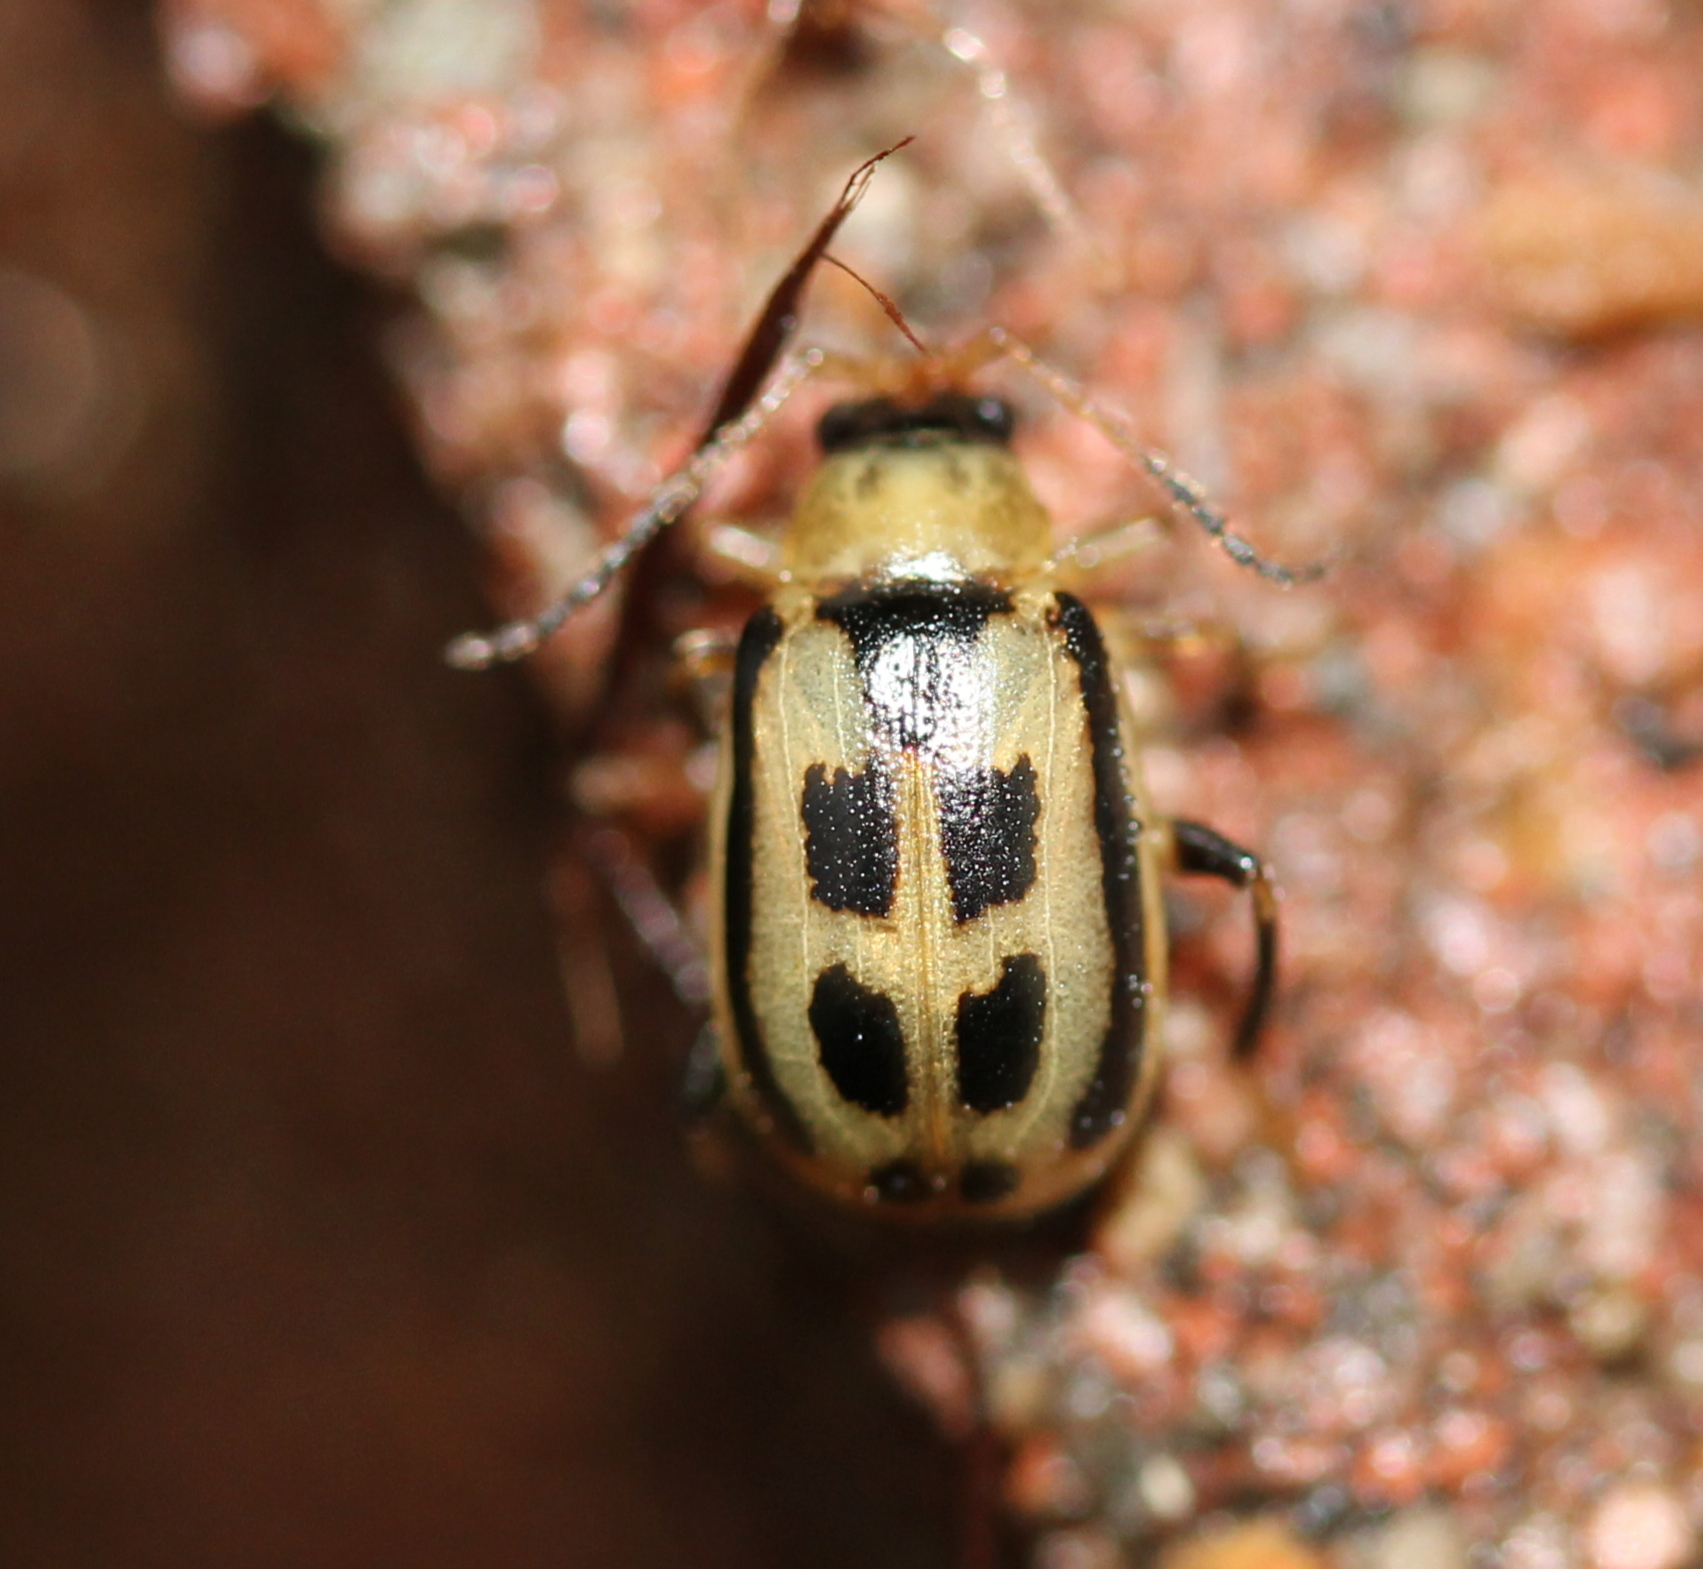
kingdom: Animalia
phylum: Arthropoda
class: Insecta
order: Coleoptera
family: Chrysomelidae
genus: Cerotoma
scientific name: Cerotoma trifurcata
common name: Bean leaf beetle
